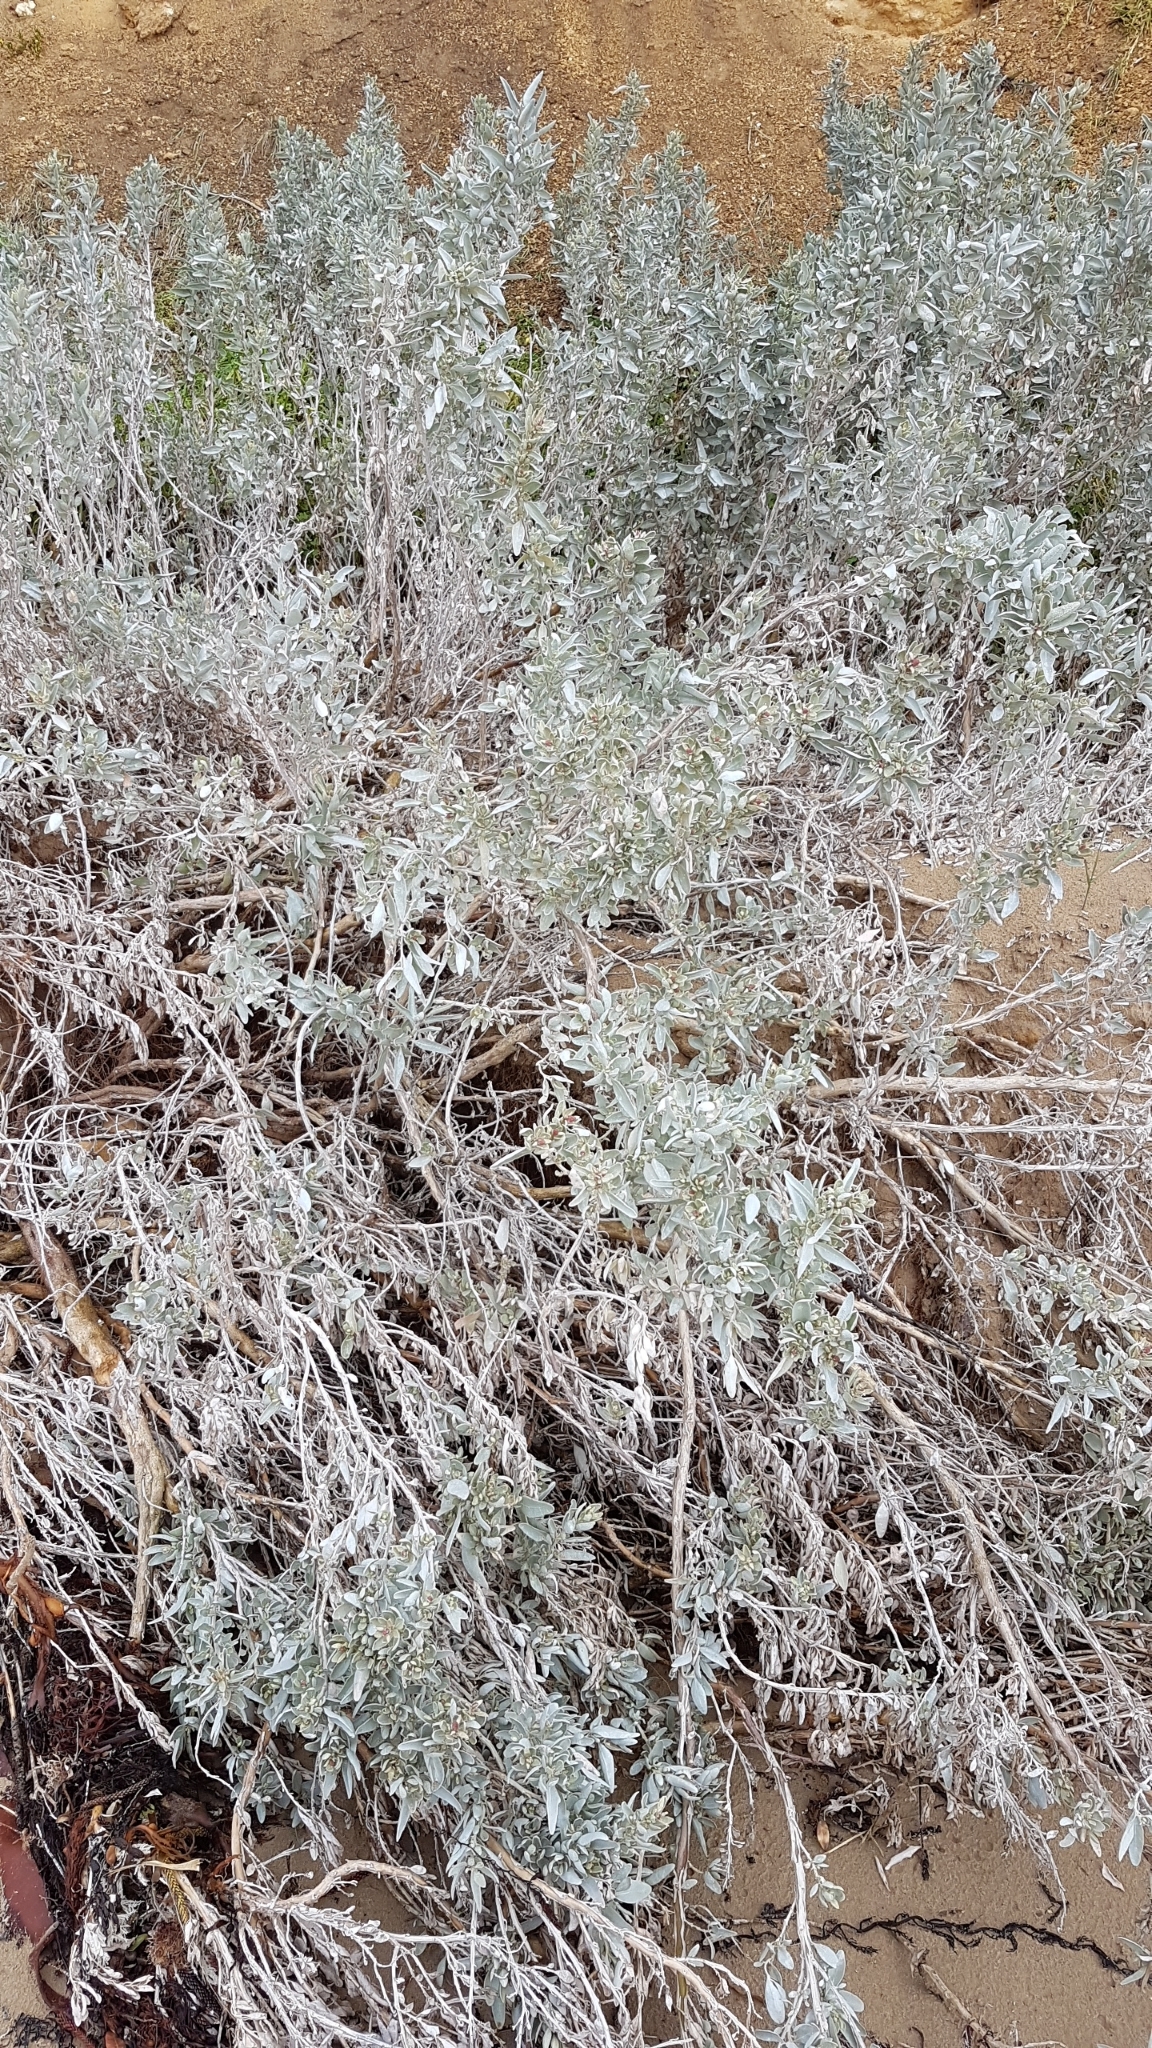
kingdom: Plantae
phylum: Tracheophyta
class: Magnoliopsida
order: Caryophyllales
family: Amaranthaceae
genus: Atriplex
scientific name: Atriplex cinerea
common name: Grey saltbush
